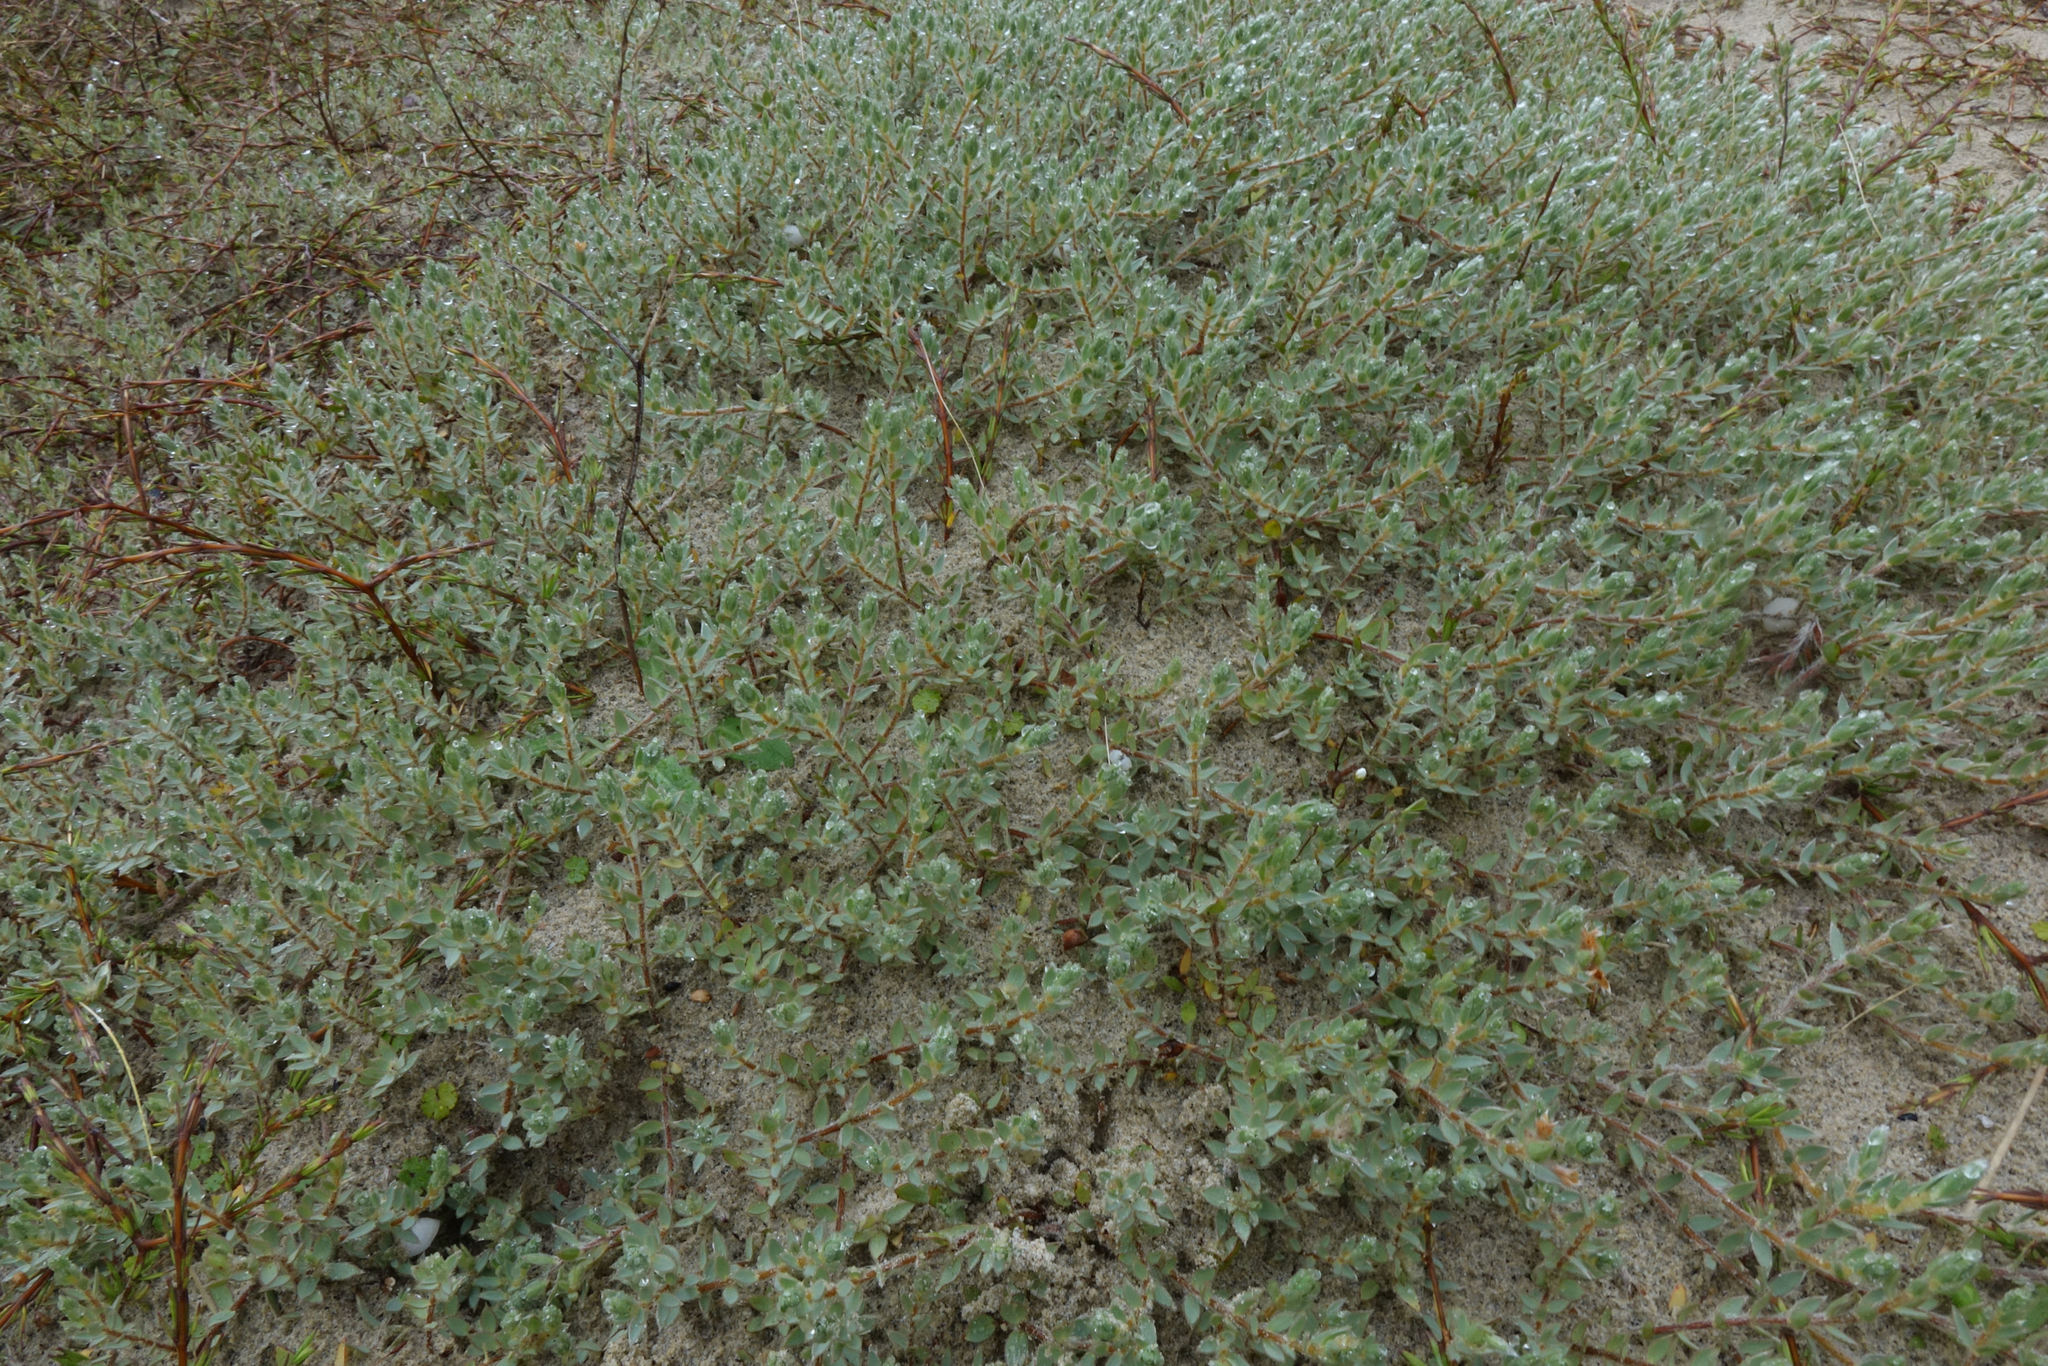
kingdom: Plantae
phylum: Tracheophyta
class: Magnoliopsida
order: Malvales
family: Thymelaeaceae
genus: Pimelea
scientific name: Pimelea lyallii
